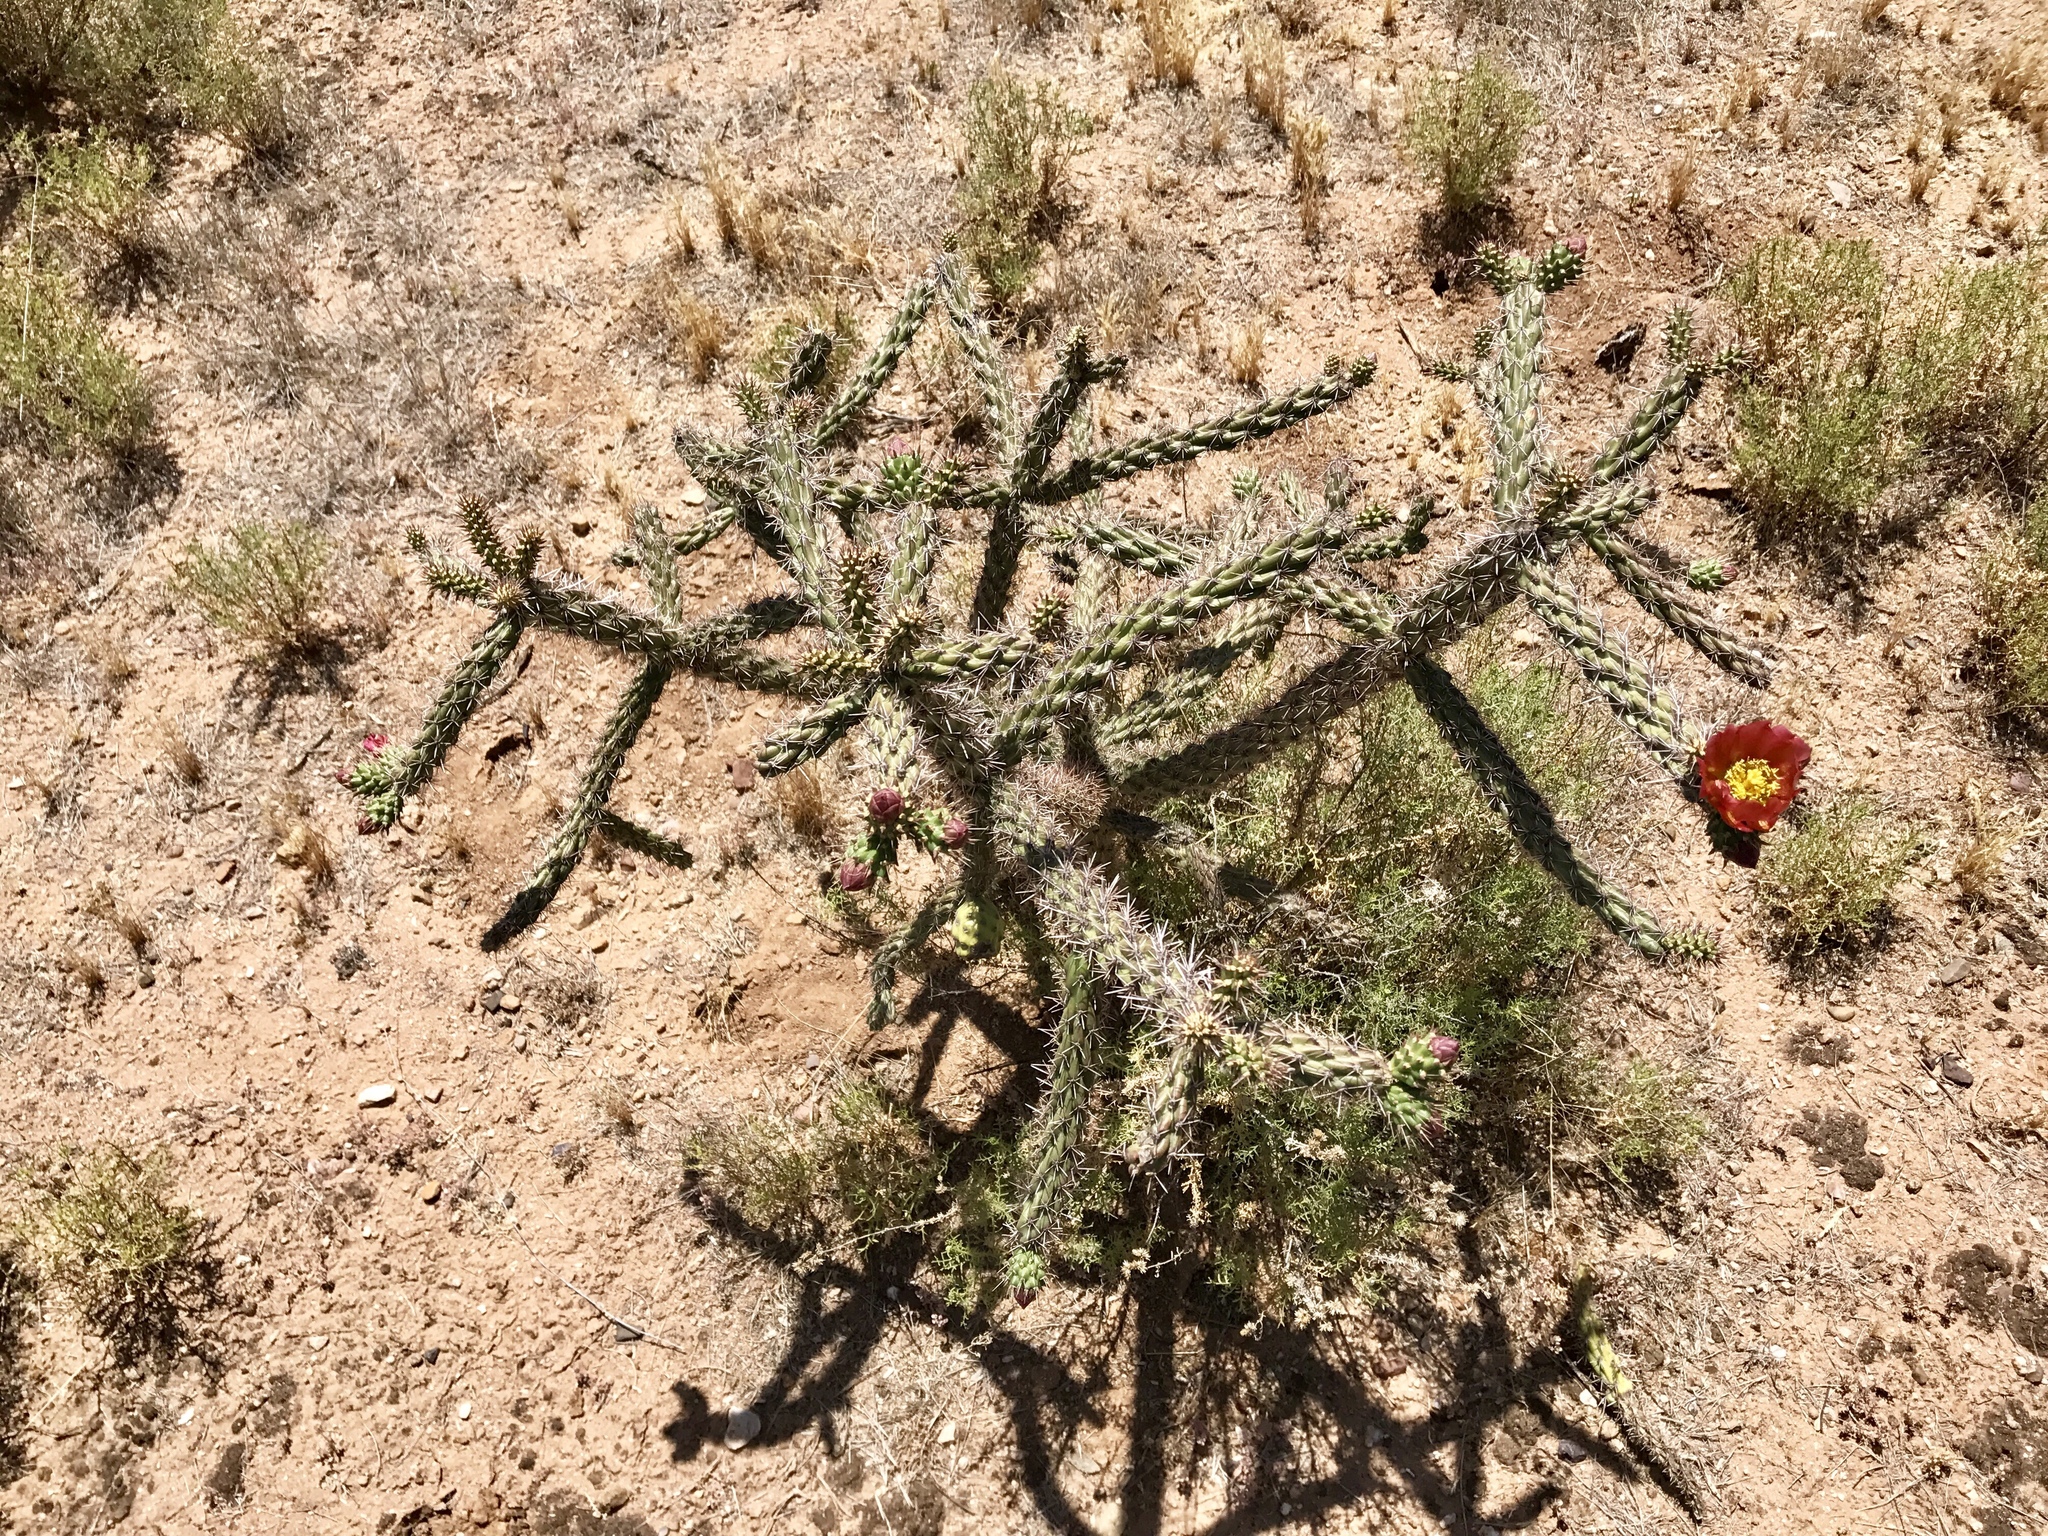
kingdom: Plantae
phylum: Tracheophyta
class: Magnoliopsida
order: Caryophyllales
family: Cactaceae
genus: Cylindropuntia
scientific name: Cylindropuntia thurberi
